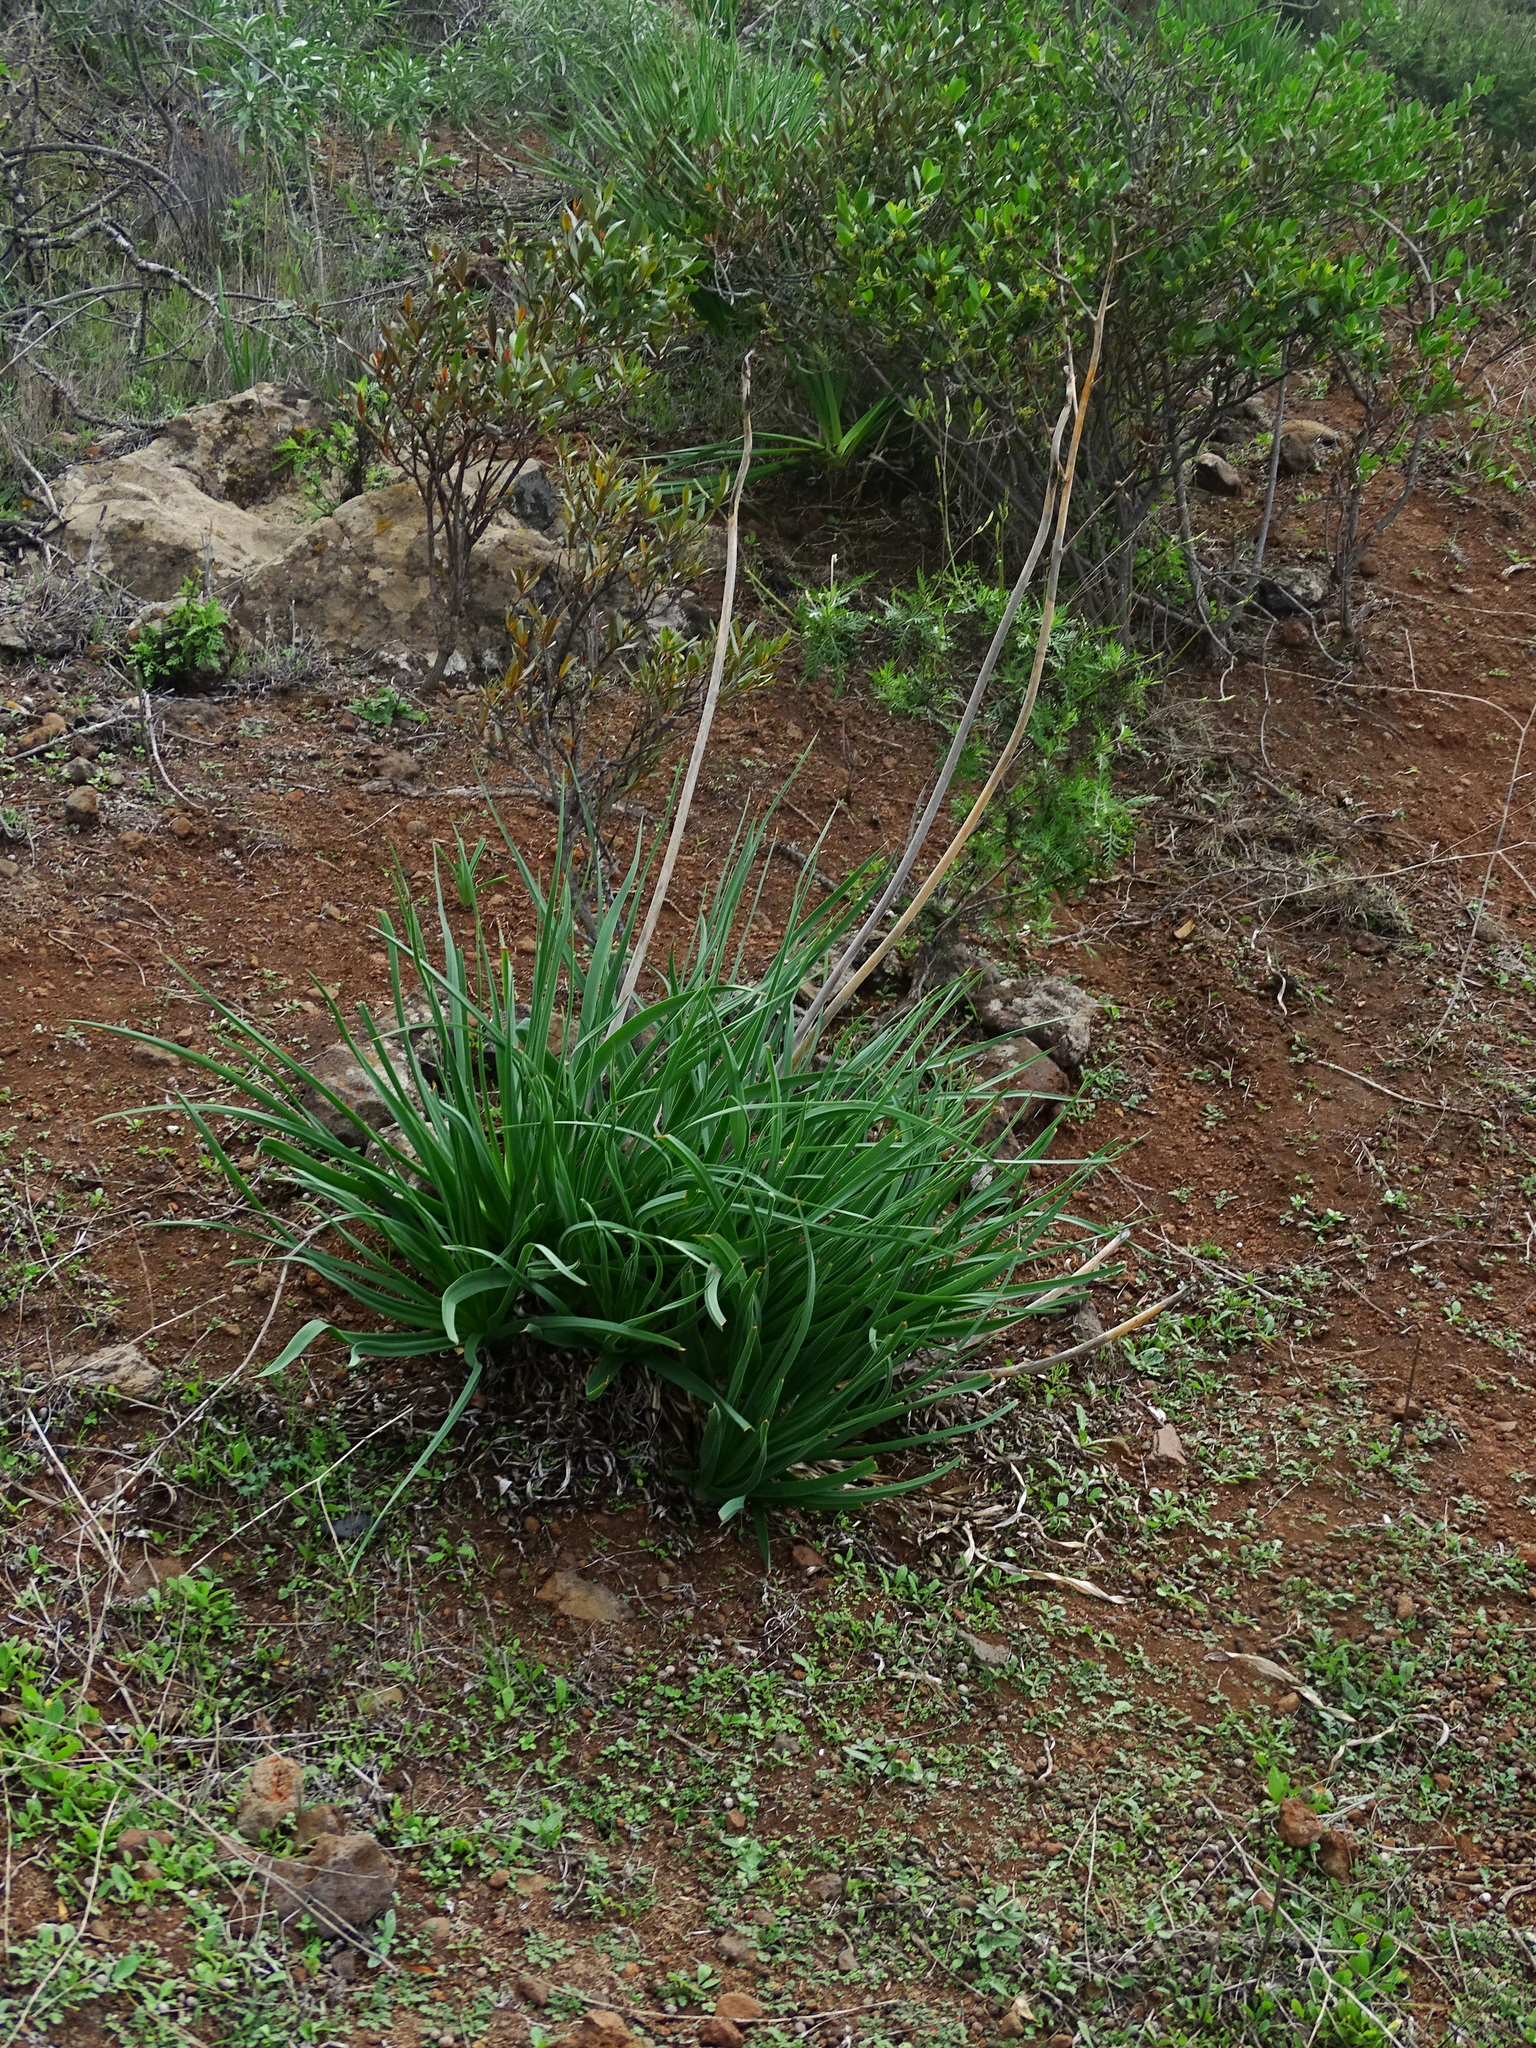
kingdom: Plantae
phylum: Tracheophyta
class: Liliopsida
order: Asparagales
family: Asphodelaceae
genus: Asphodelus
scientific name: Asphodelus ramosus
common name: Silverrod
